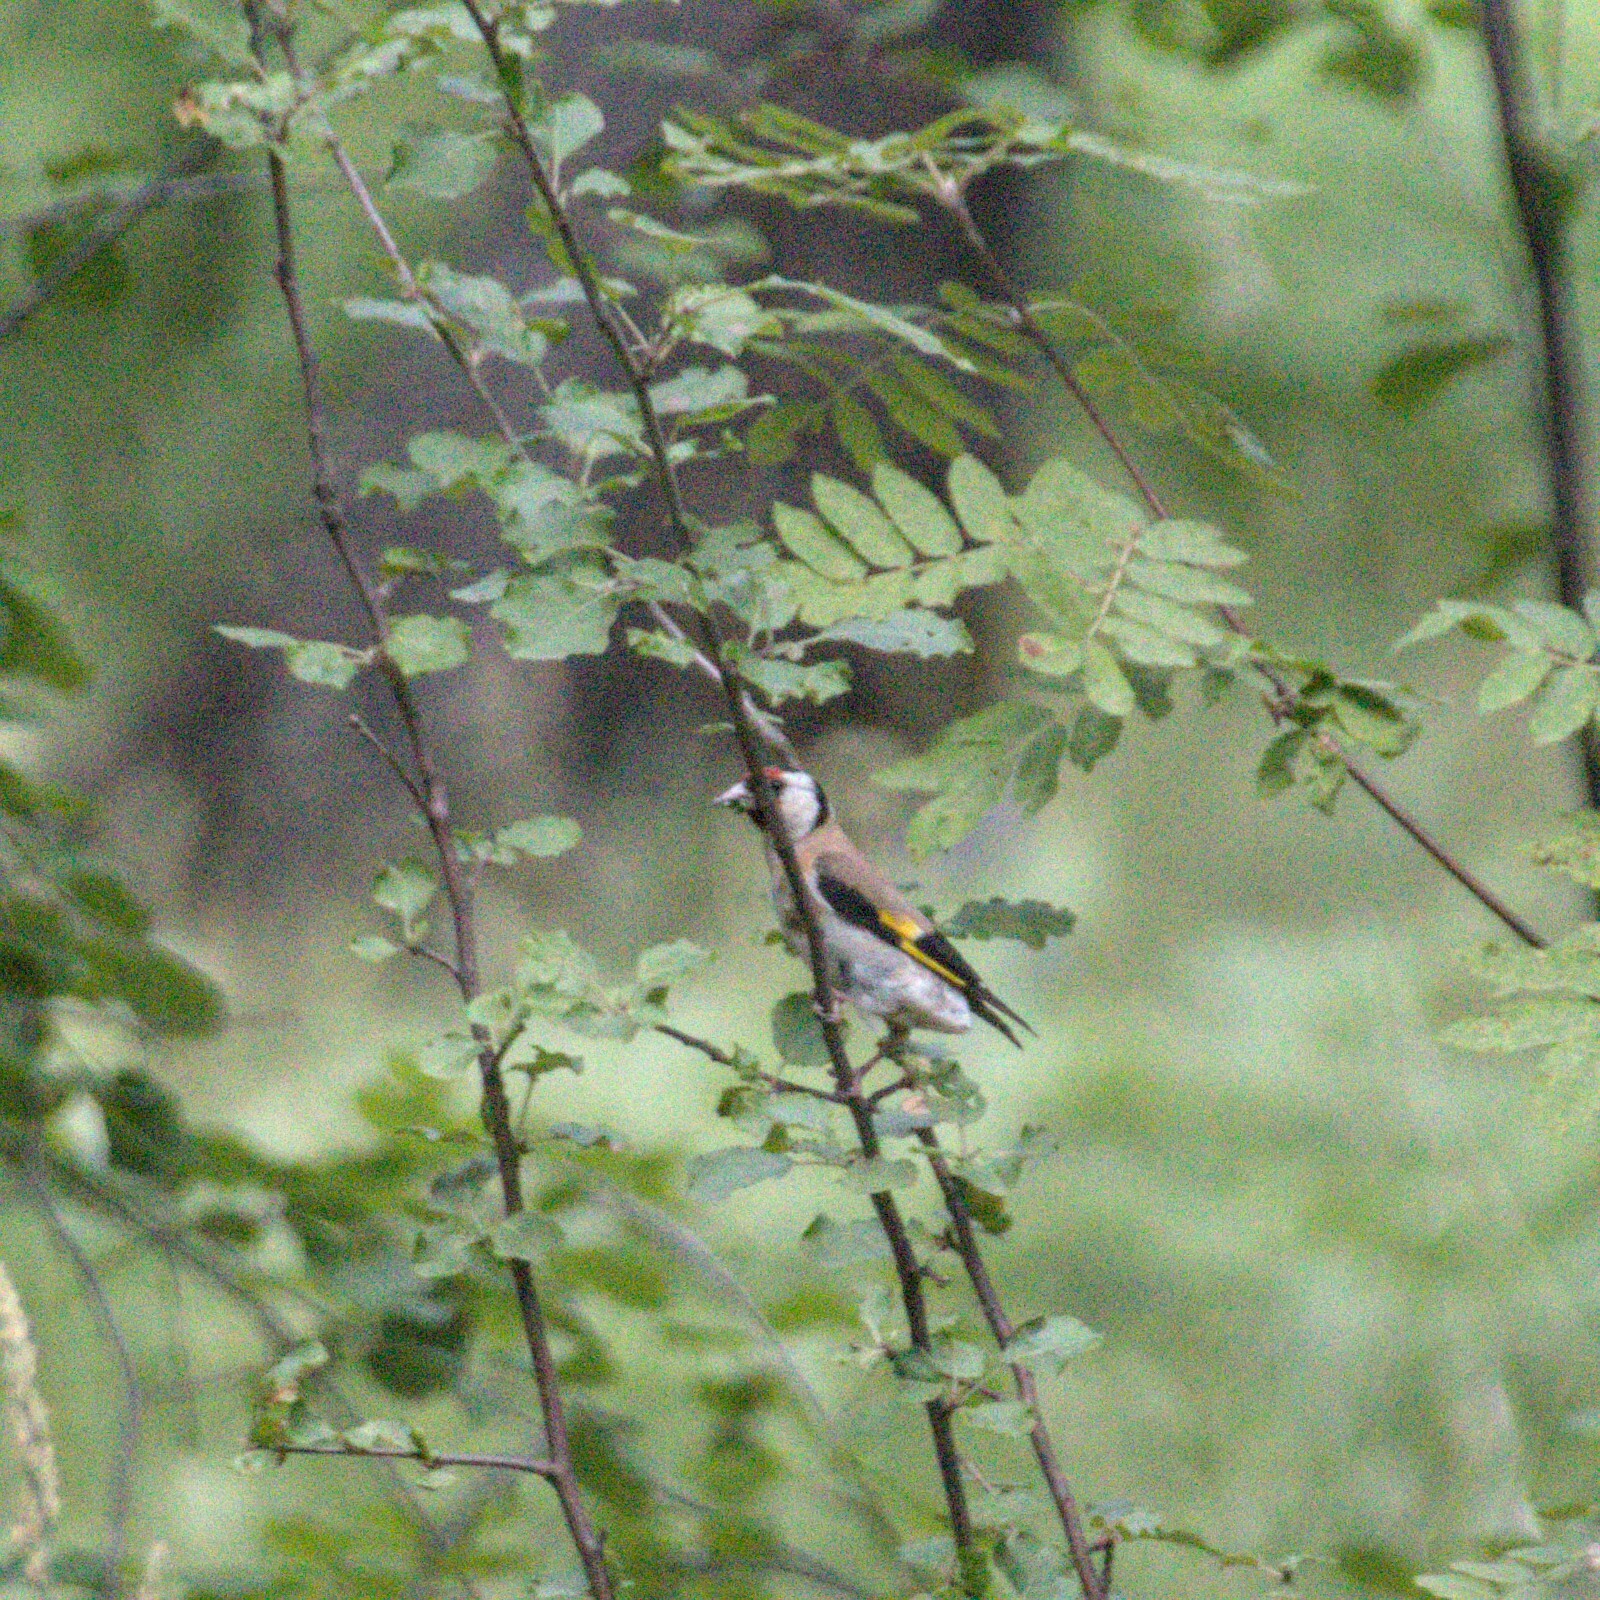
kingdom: Animalia
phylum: Chordata
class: Aves
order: Passeriformes
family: Fringillidae
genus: Carduelis
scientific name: Carduelis carduelis
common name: European goldfinch
